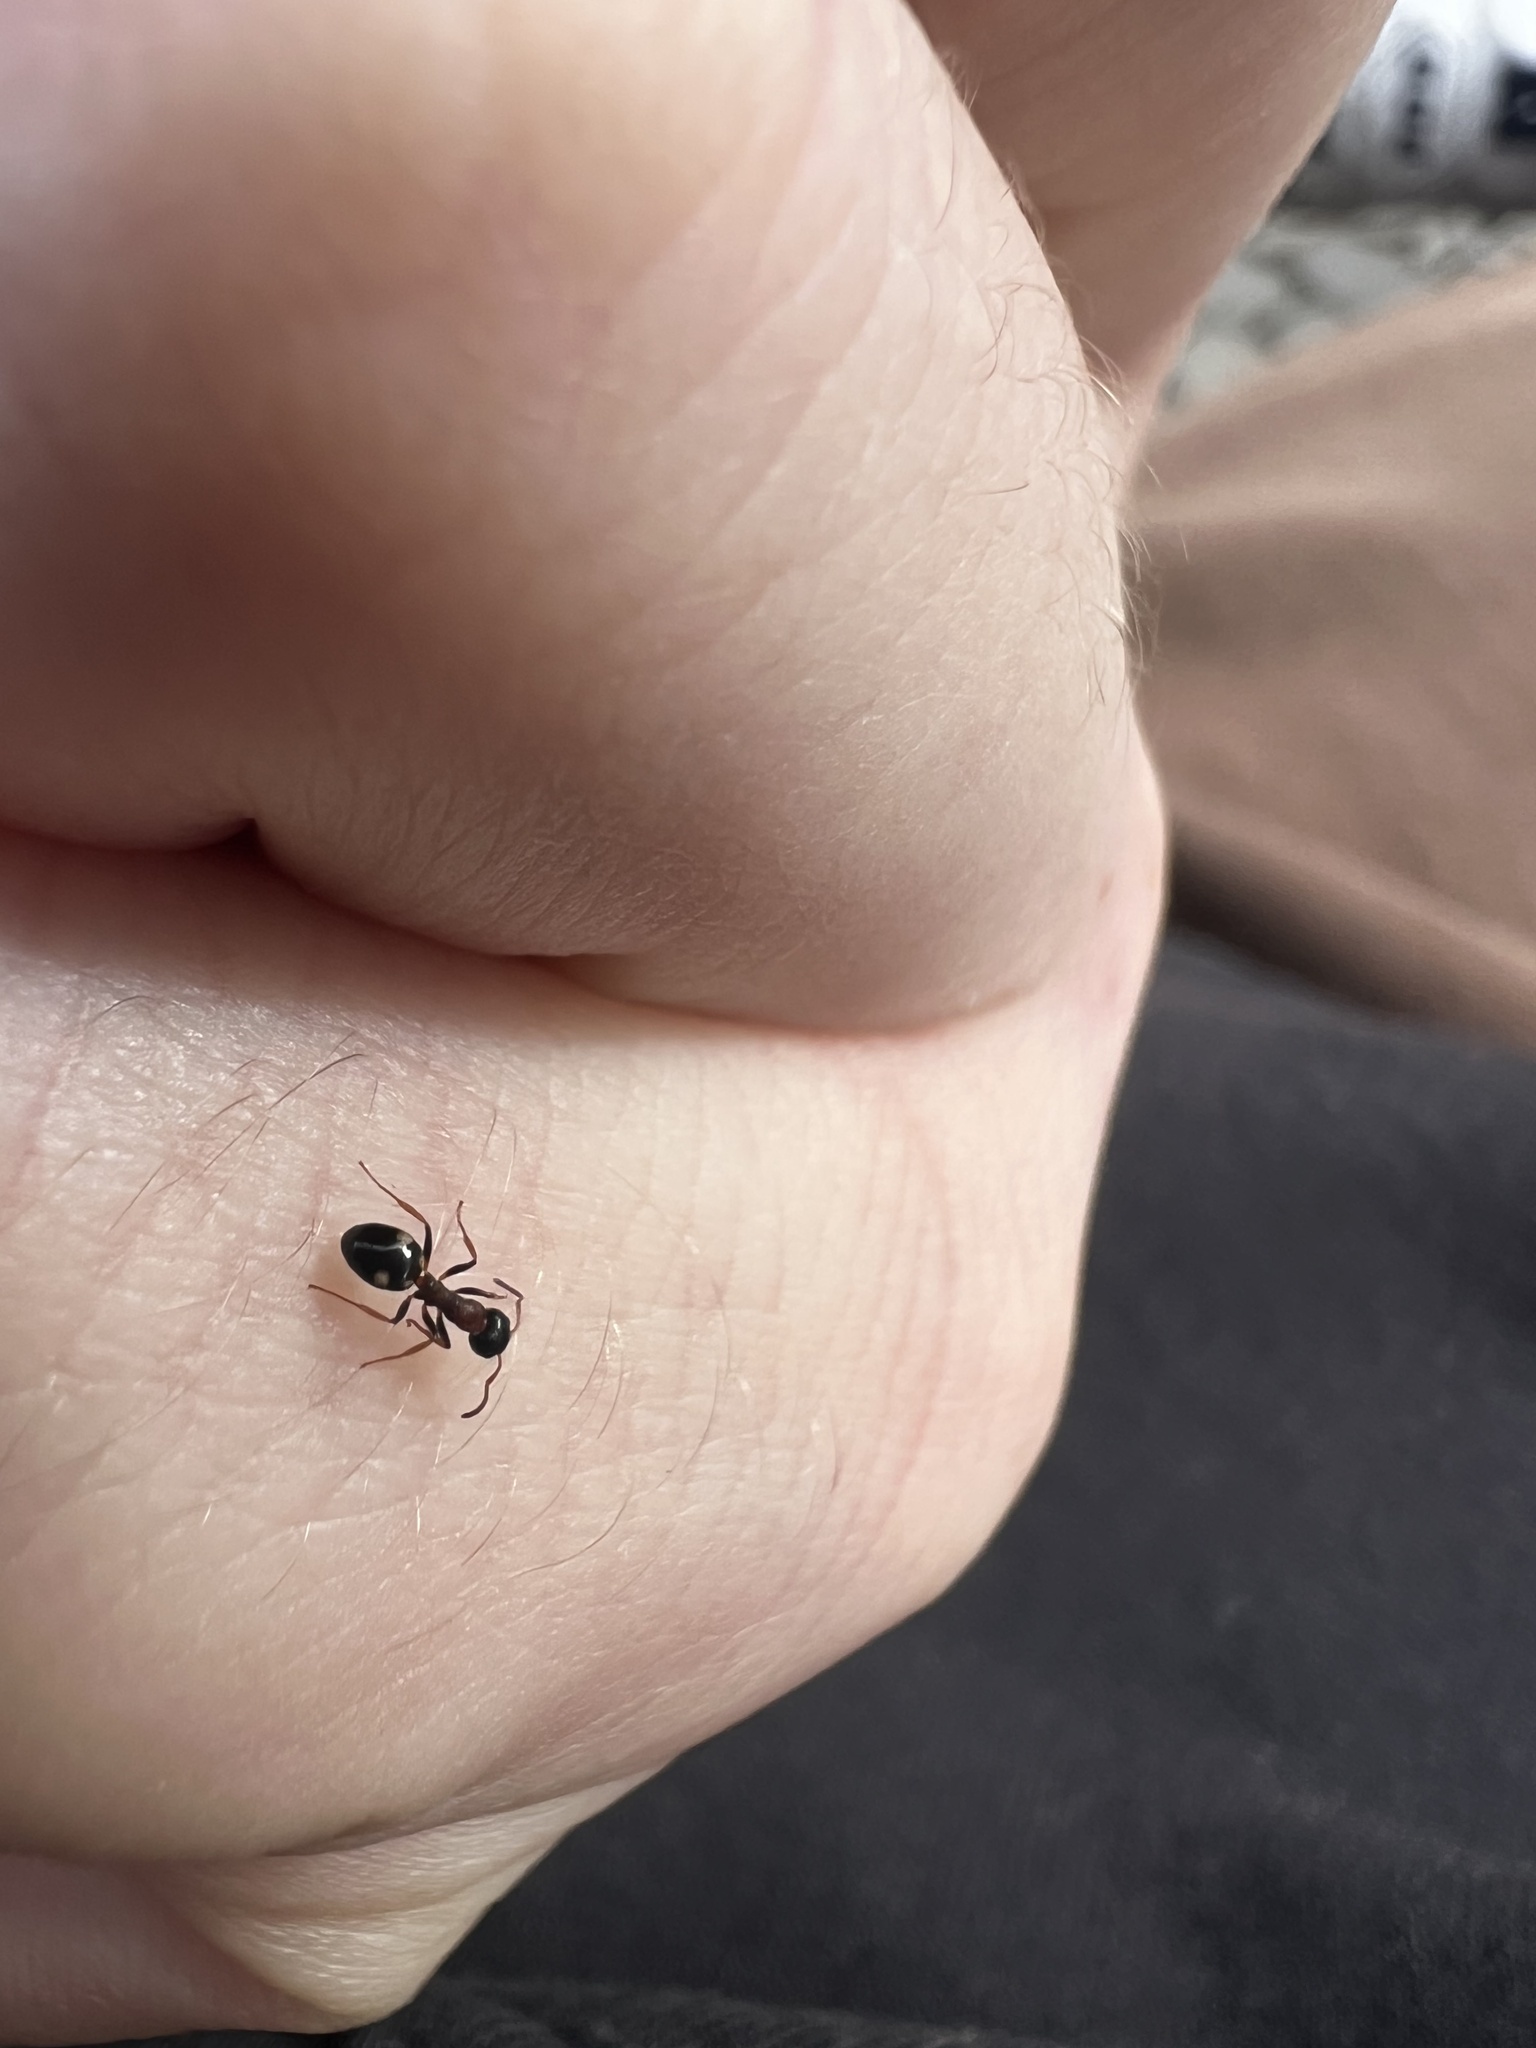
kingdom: Animalia
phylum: Arthropoda
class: Insecta
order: Hymenoptera
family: Formicidae
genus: Dolichoderus
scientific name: Dolichoderus quadripunctatus
